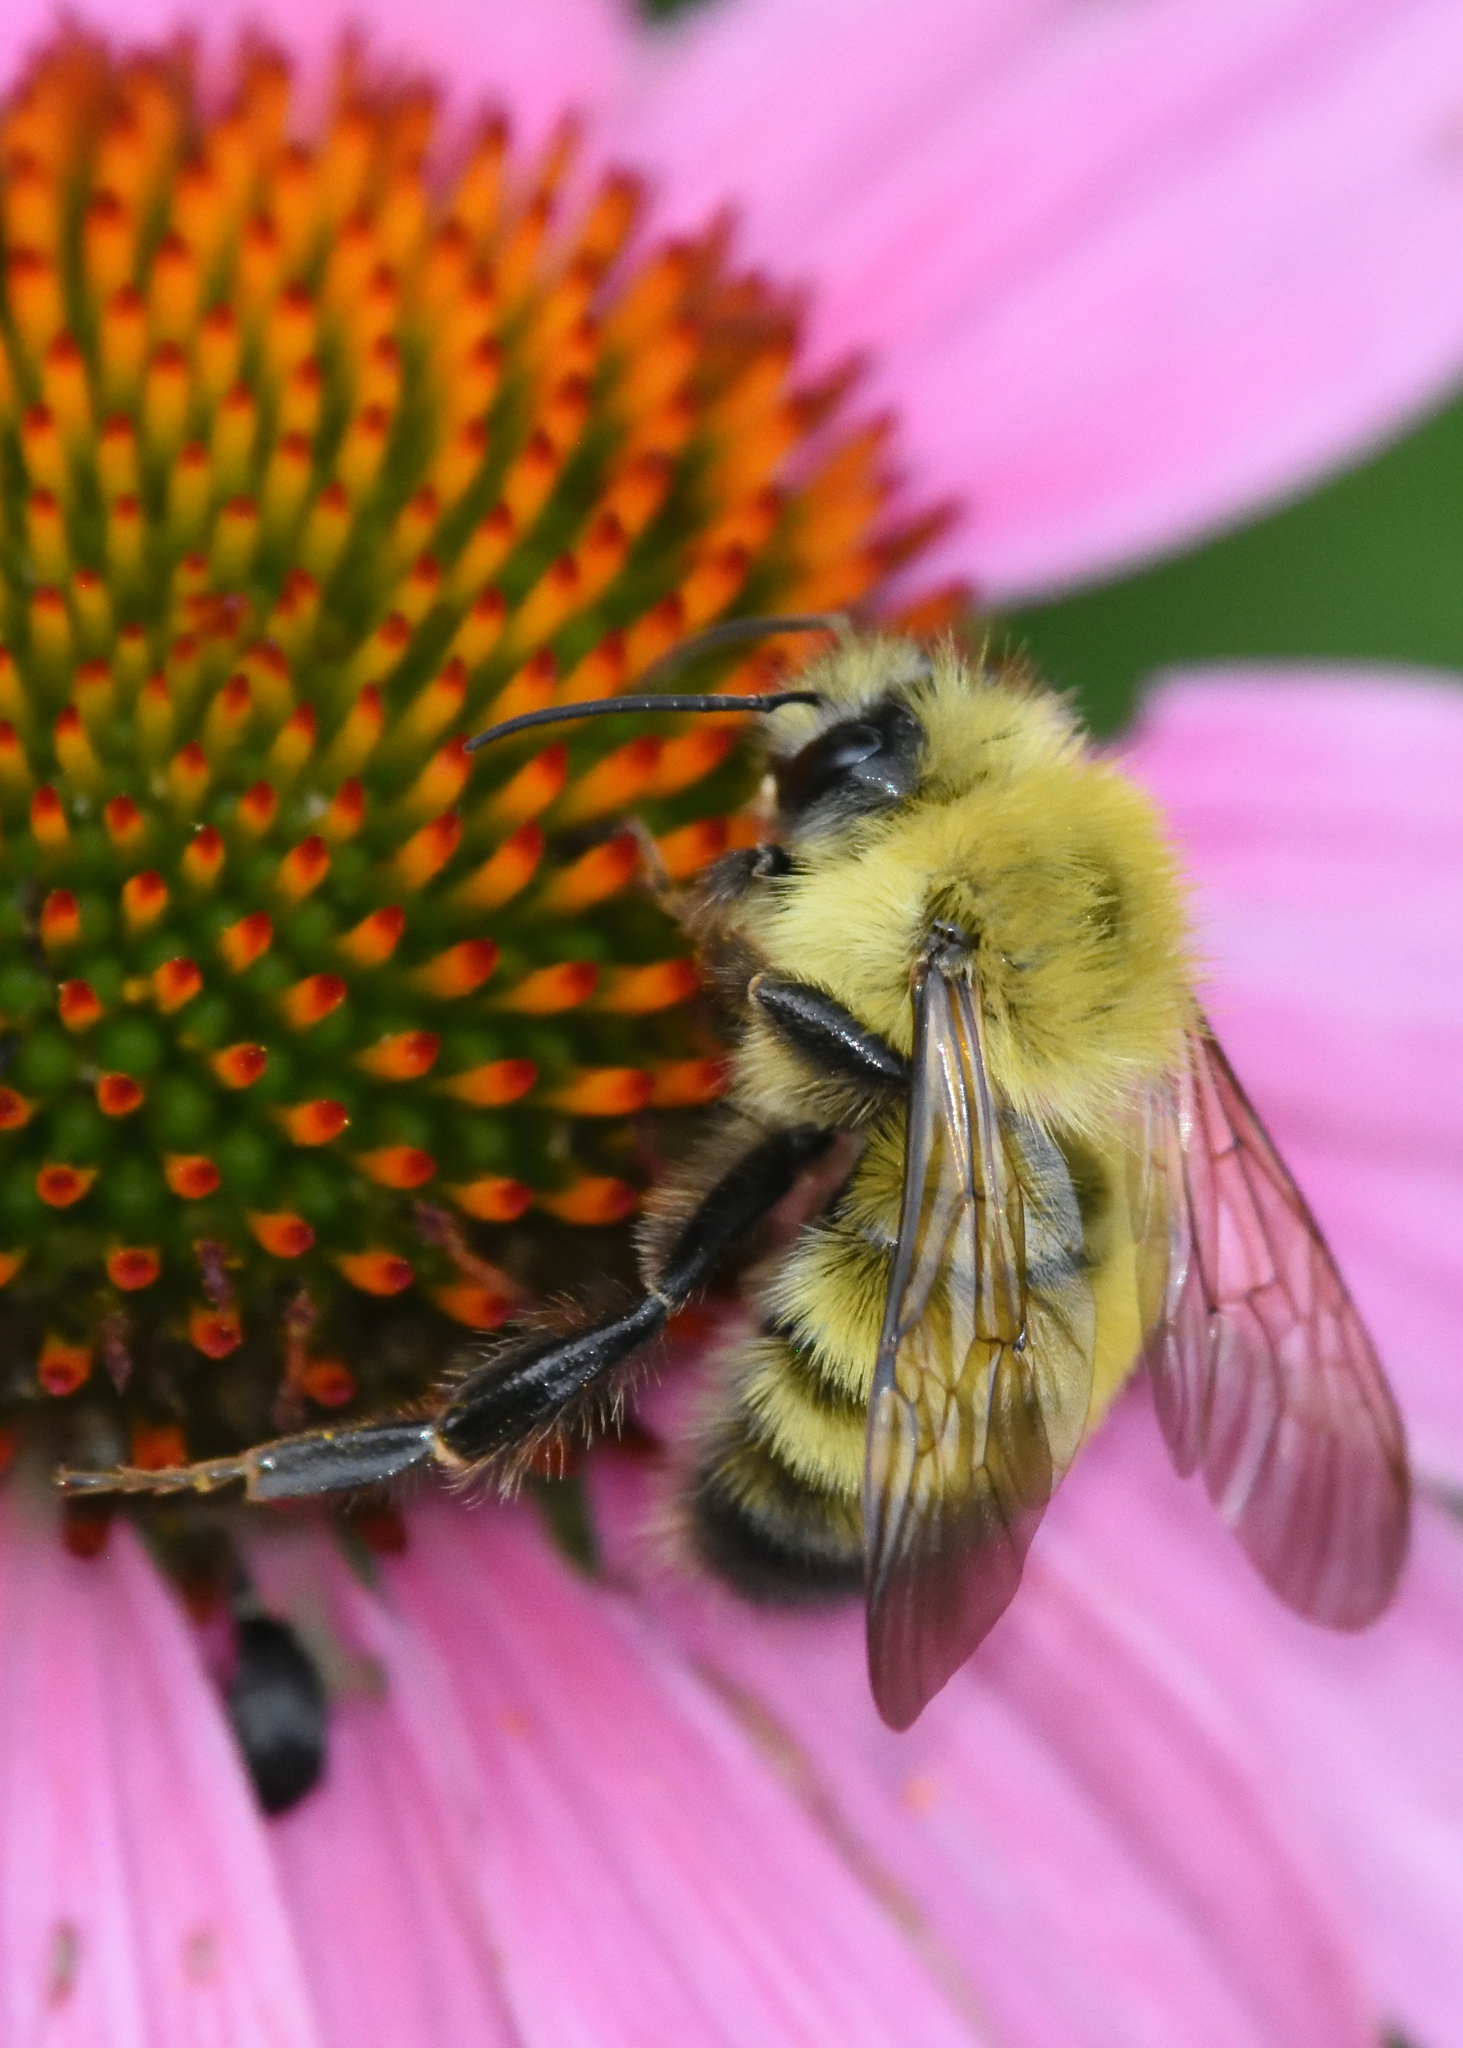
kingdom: Animalia
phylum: Arthropoda
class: Insecta
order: Hymenoptera
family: Apidae
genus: Bombus
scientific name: Bombus perplexus
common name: Confusing bumble bee
